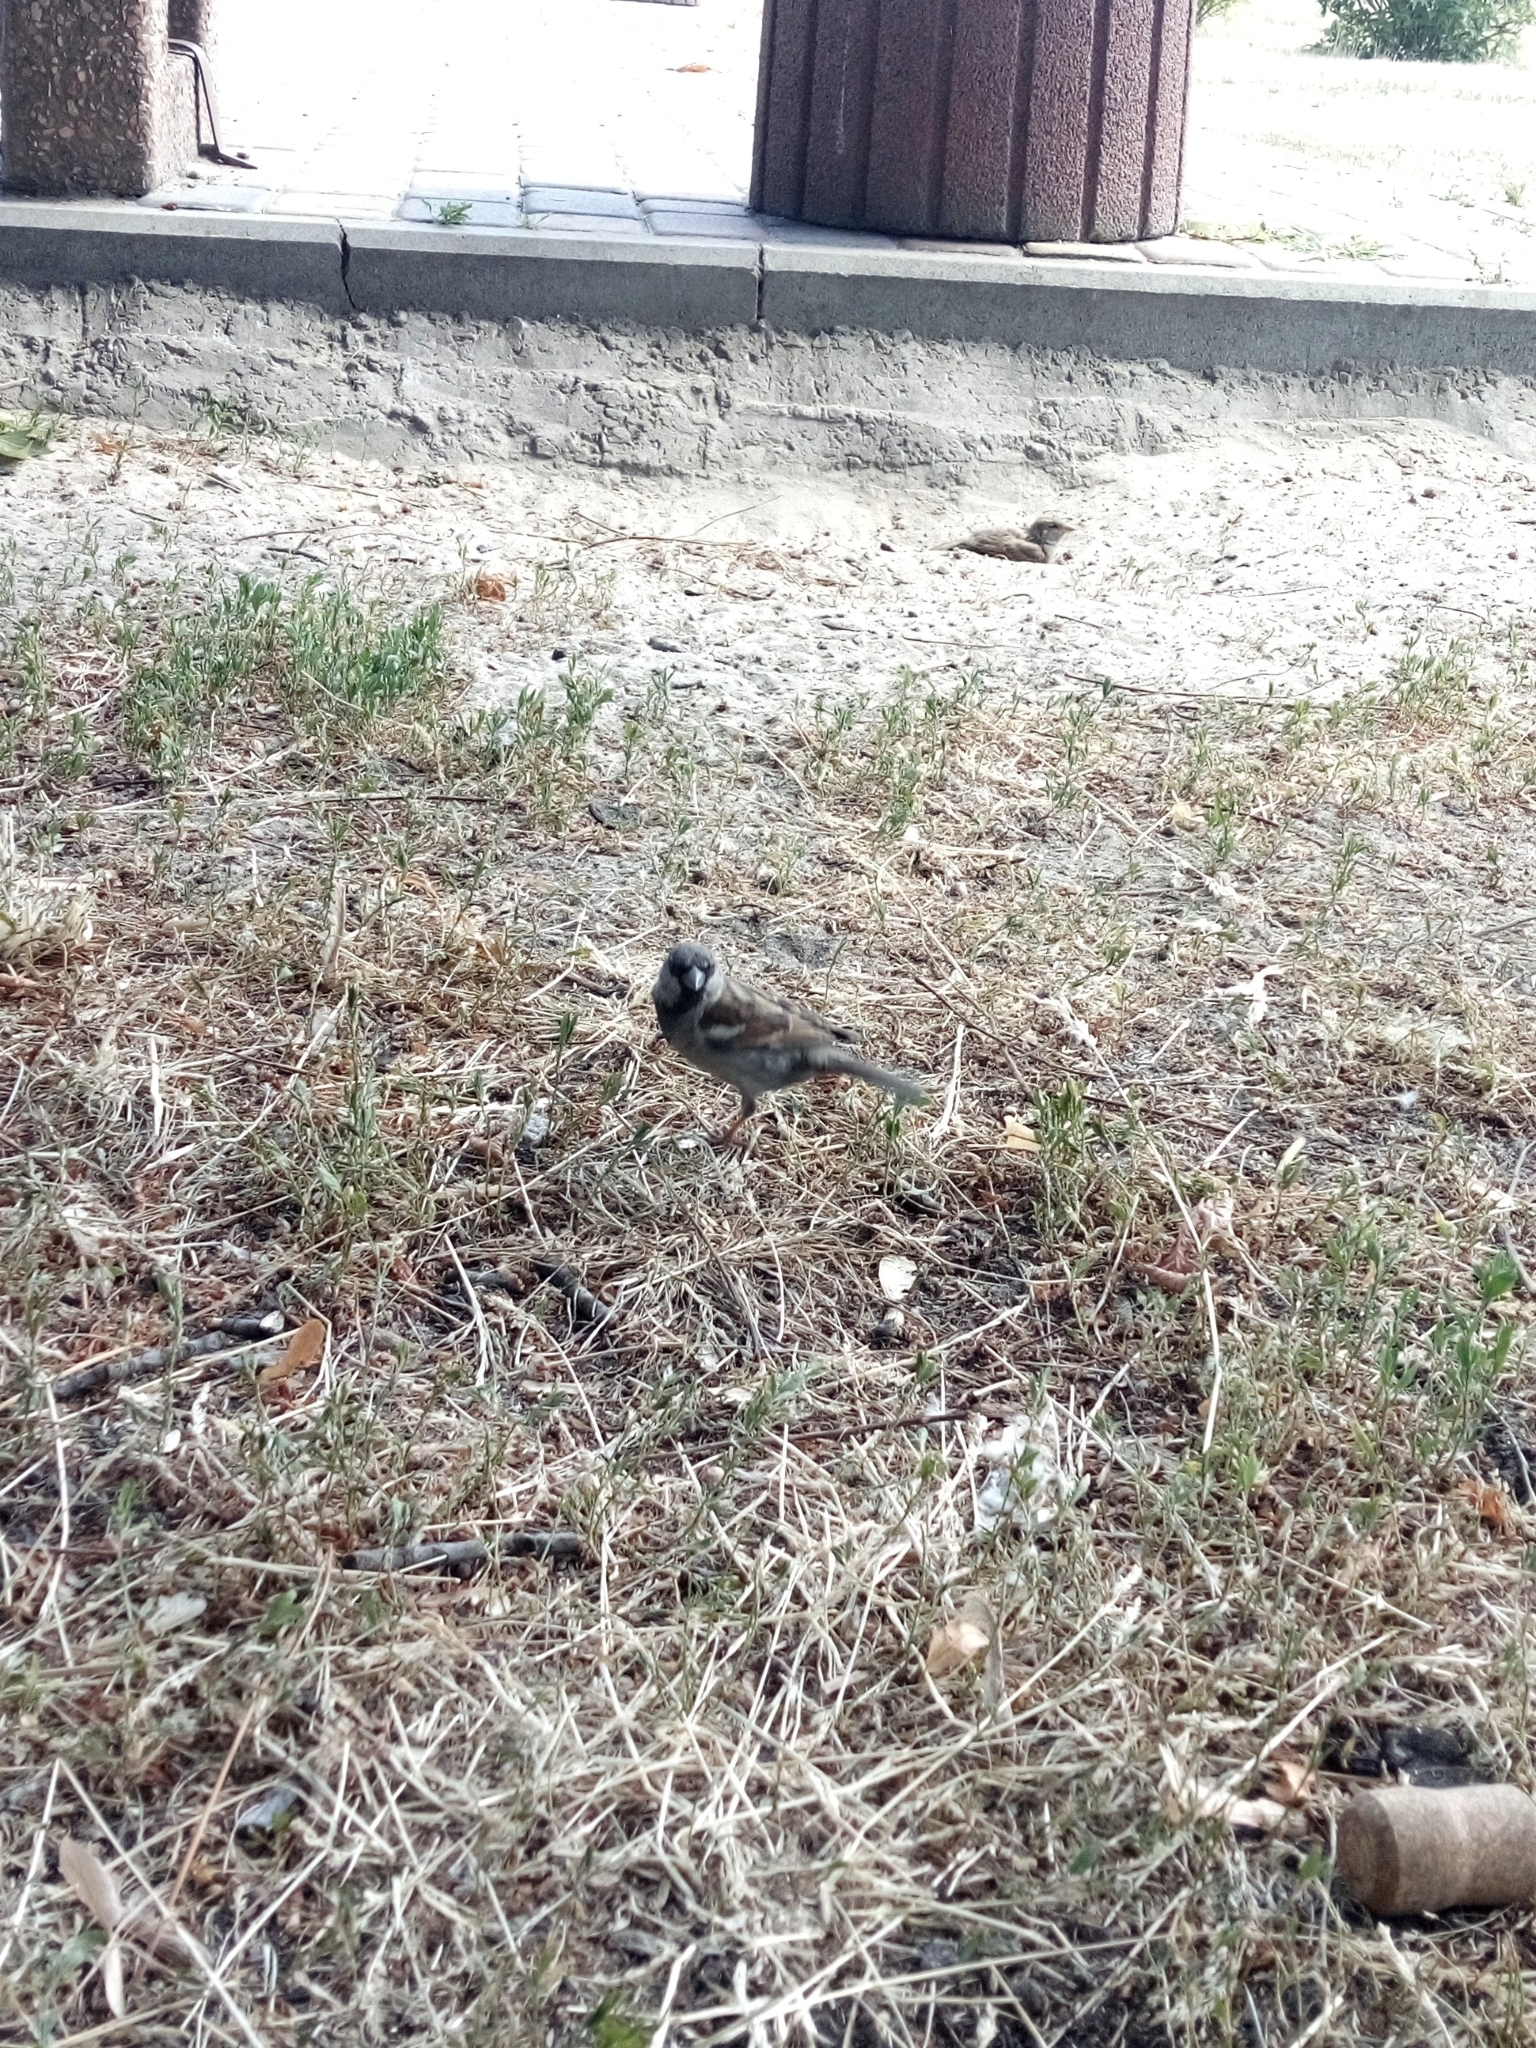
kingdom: Animalia
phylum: Chordata
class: Aves
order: Passeriformes
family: Passeridae
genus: Passer
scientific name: Passer domesticus
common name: House sparrow
